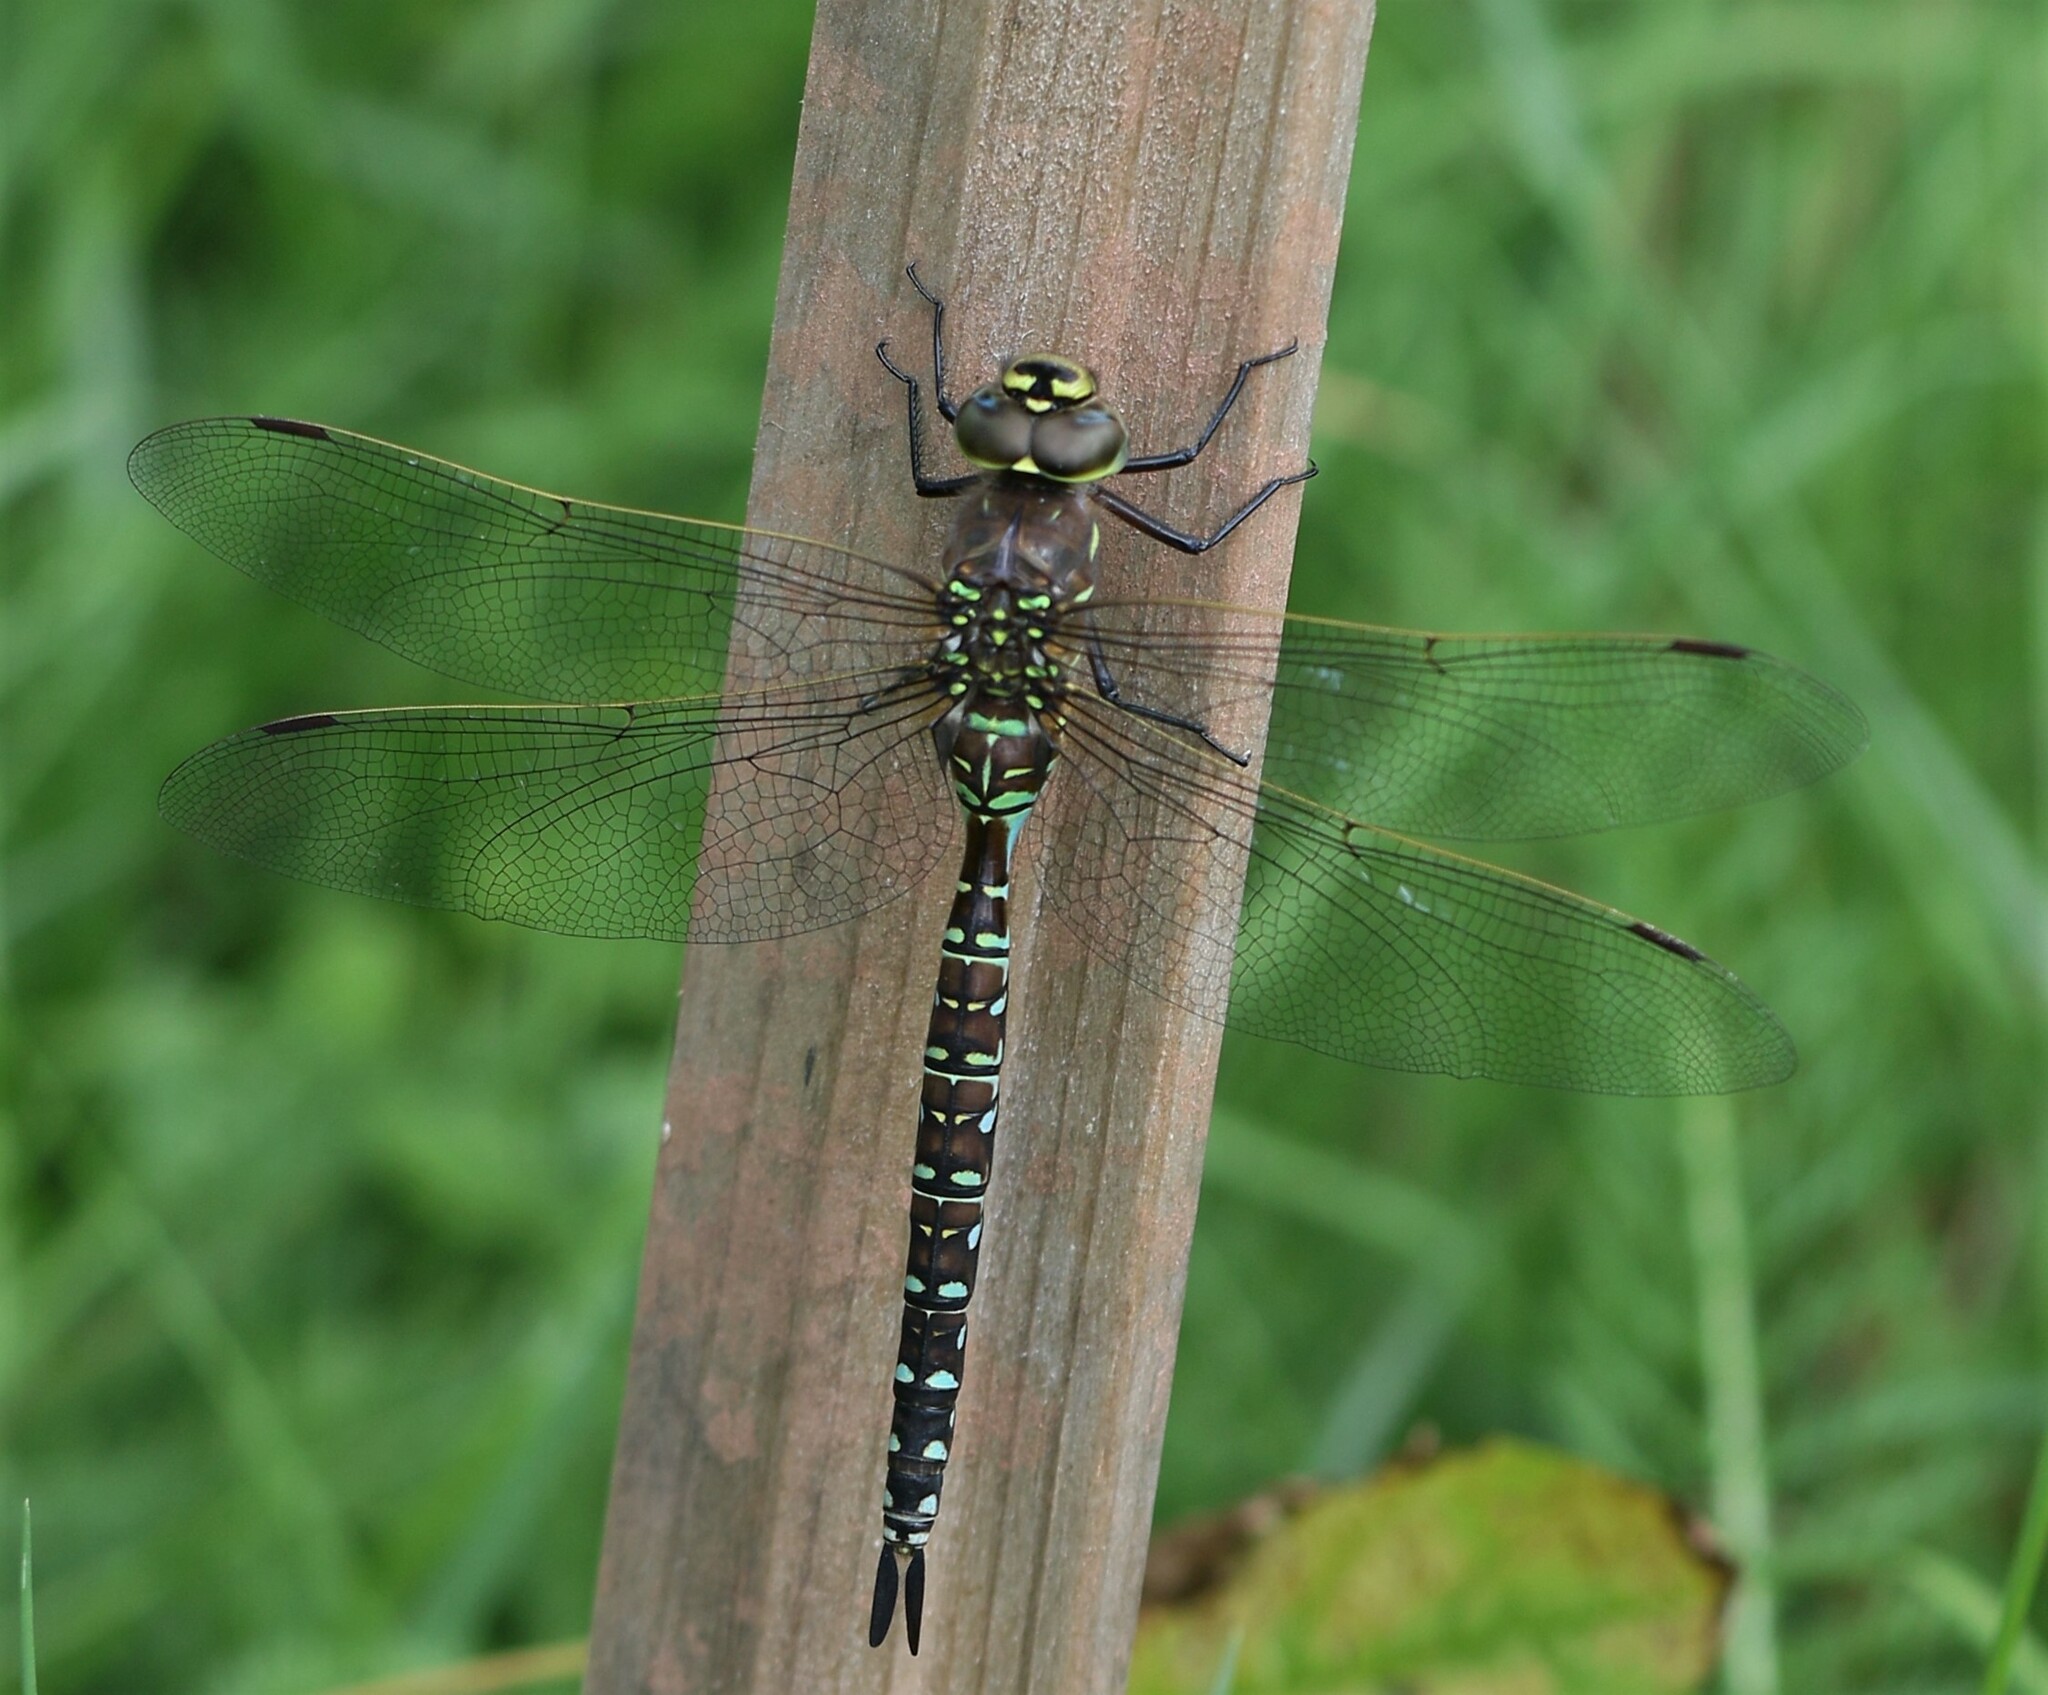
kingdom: Animalia
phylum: Arthropoda
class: Insecta
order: Odonata
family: Aeshnidae
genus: Aeshna
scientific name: Aeshna interrupta
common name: Variable darner
